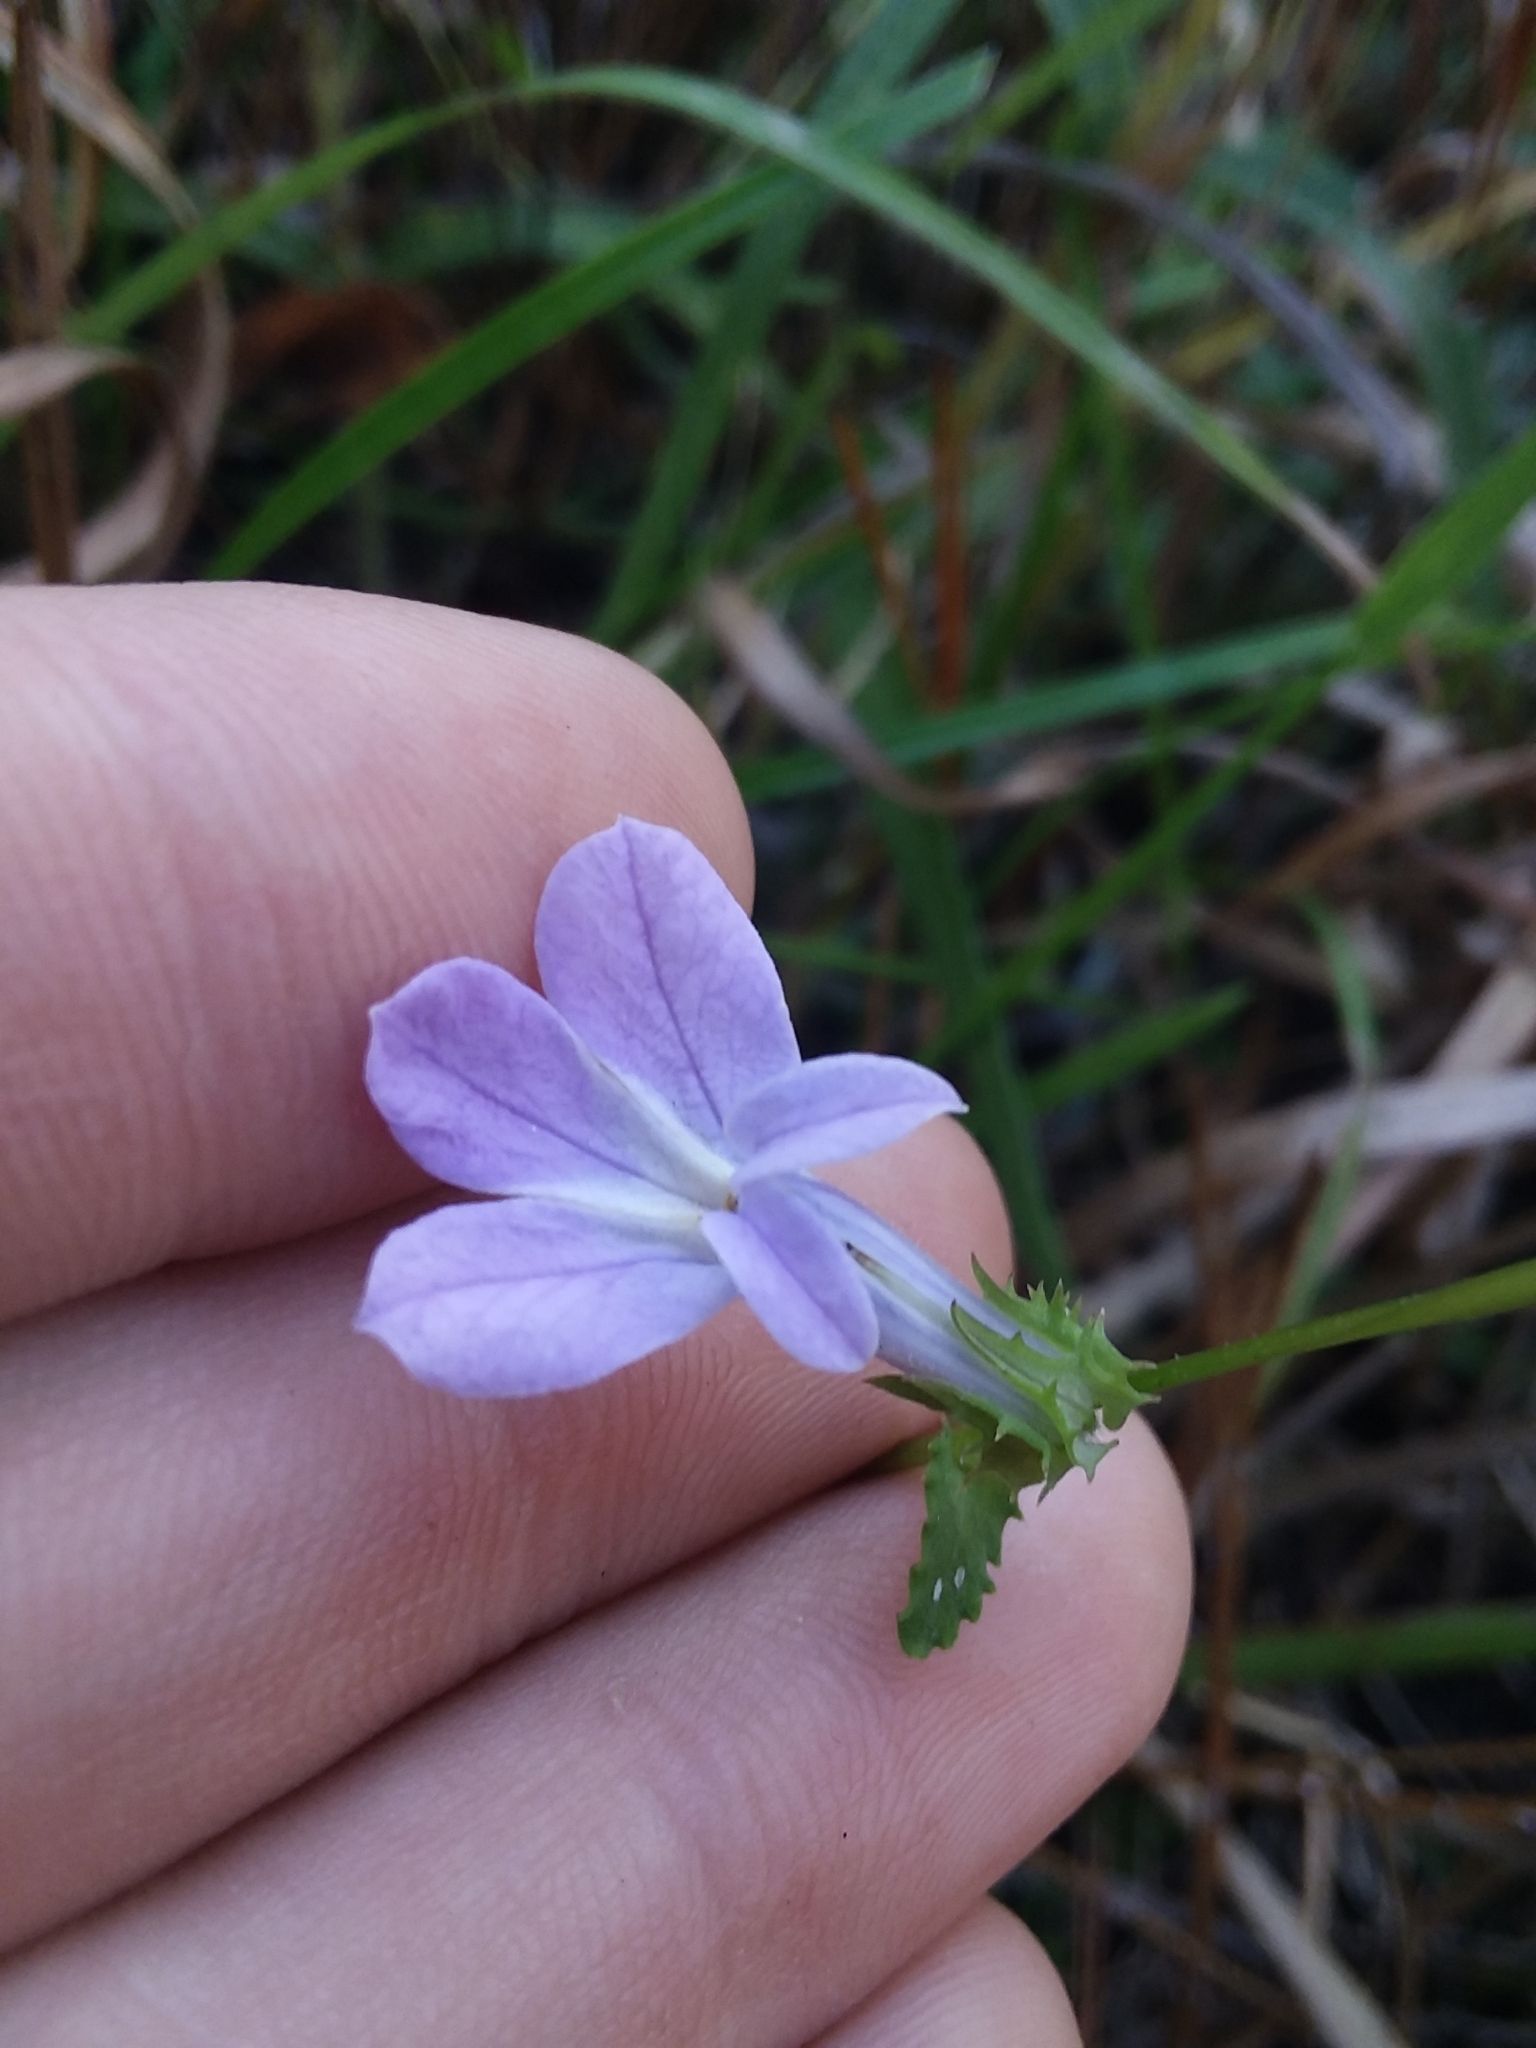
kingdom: Plantae
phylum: Tracheophyta
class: Magnoliopsida
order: Asterales
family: Campanulaceae
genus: Lobelia
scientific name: Lobelia brevifolia
